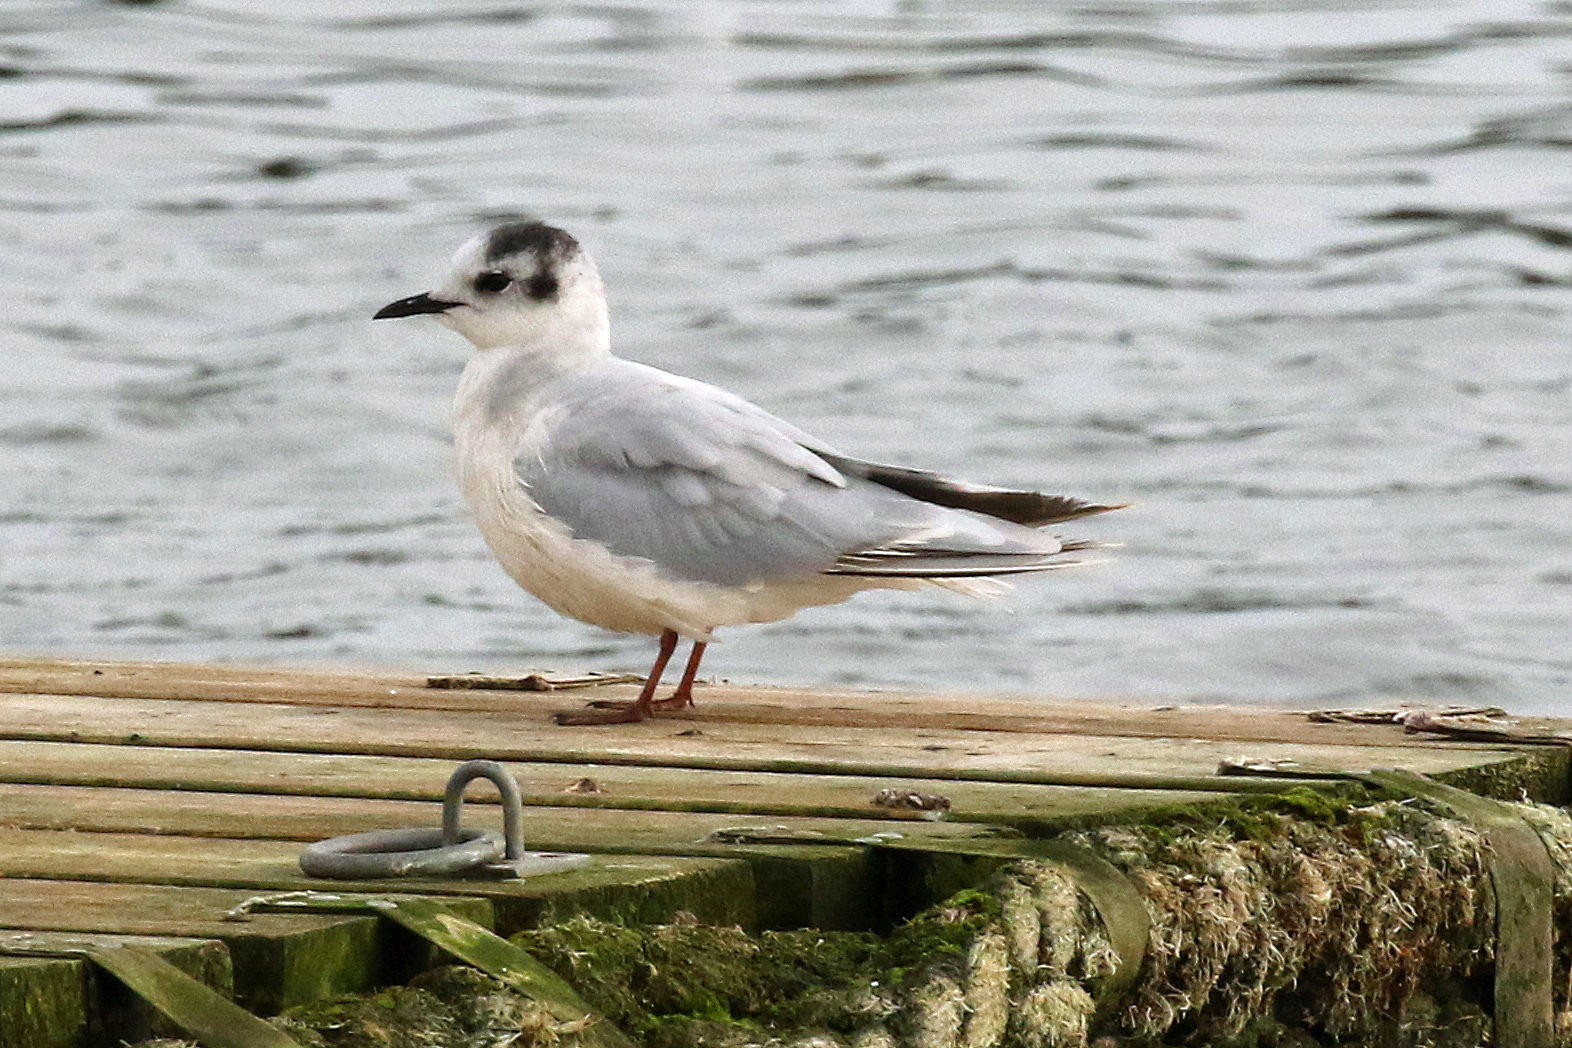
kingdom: Animalia
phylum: Chordata
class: Aves
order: Charadriiformes
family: Laridae
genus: Hydrocoloeus
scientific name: Hydrocoloeus minutus
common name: Little gull
